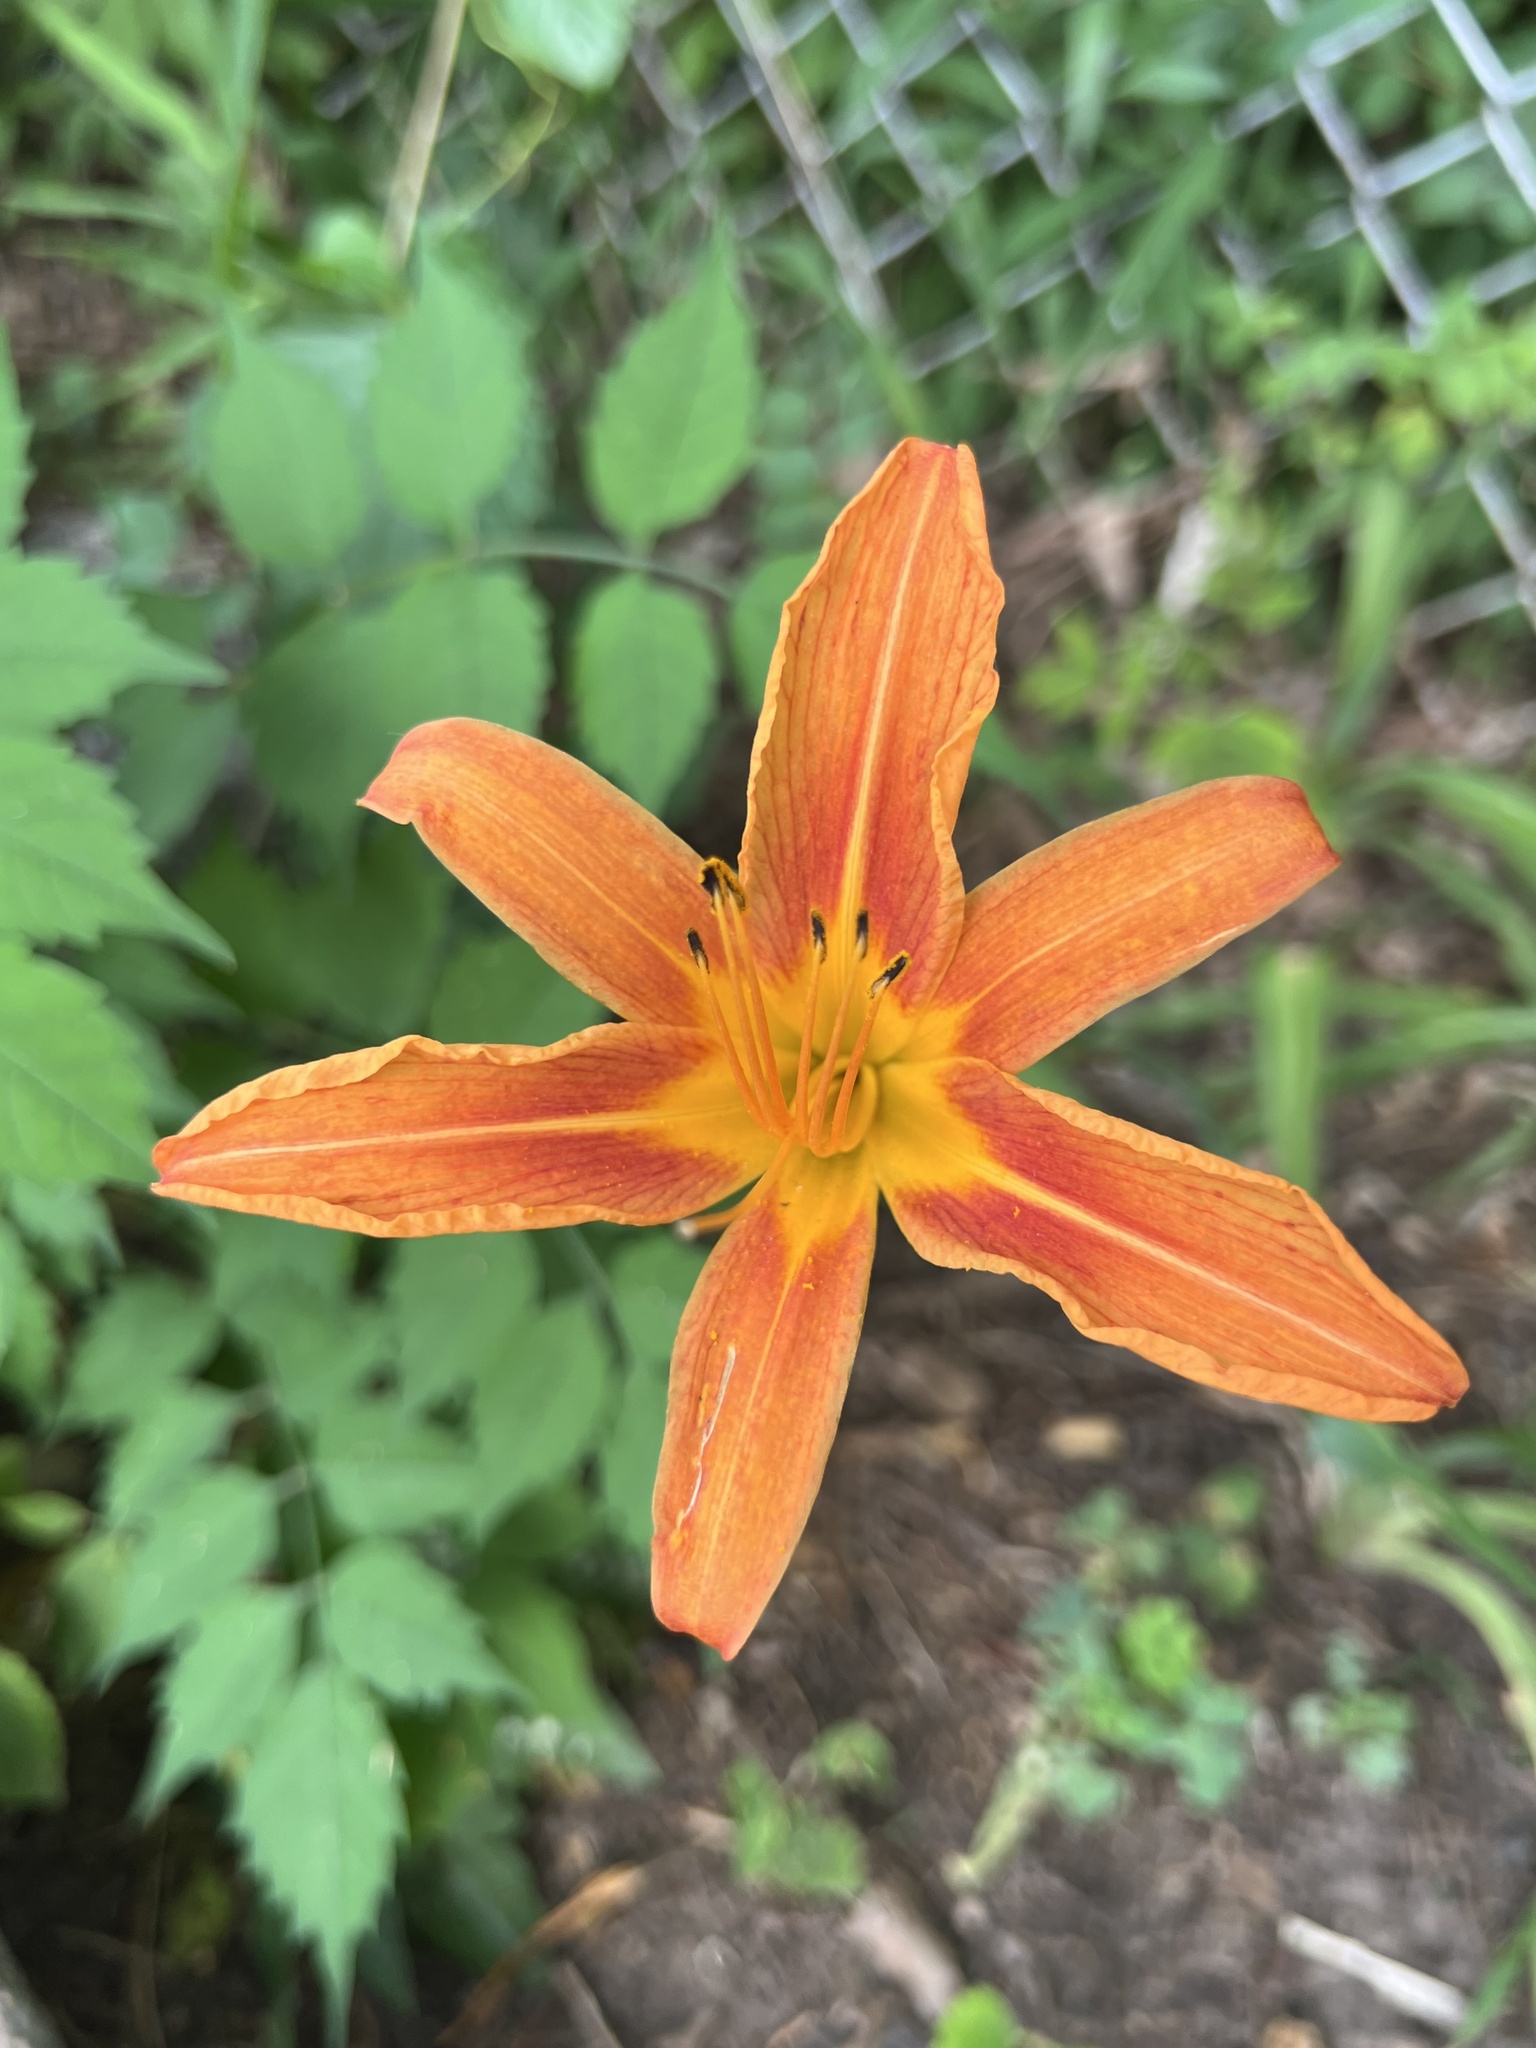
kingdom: Plantae
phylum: Tracheophyta
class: Liliopsida
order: Asparagales
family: Asphodelaceae
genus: Hemerocallis
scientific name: Hemerocallis fulva
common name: Orange day-lily
